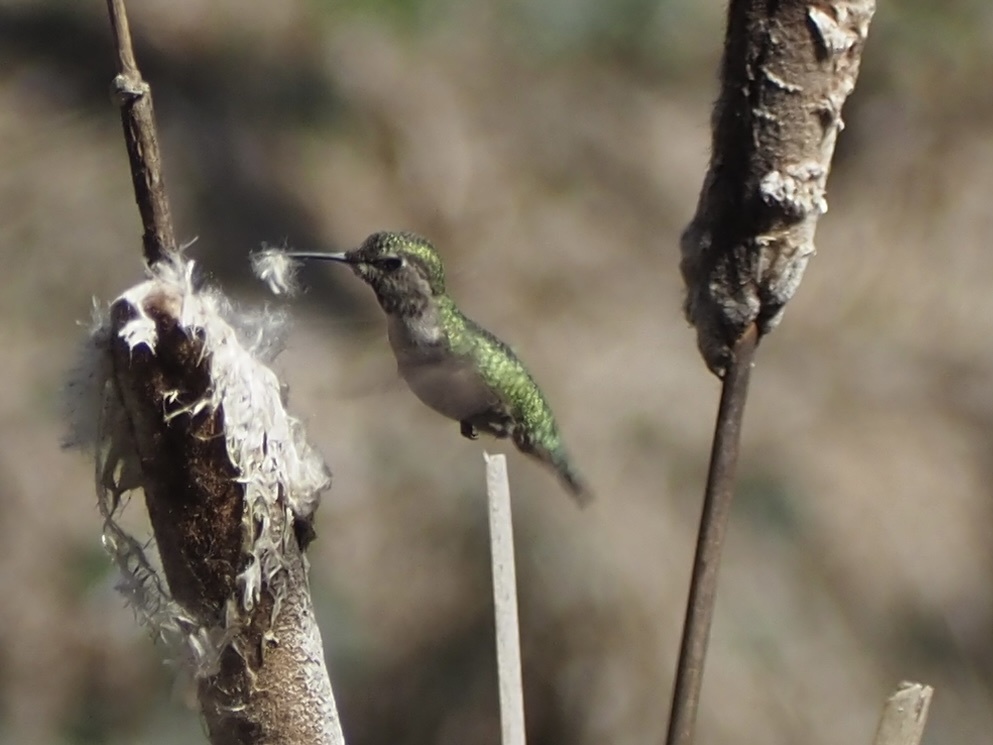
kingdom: Animalia
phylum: Chordata
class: Aves
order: Apodiformes
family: Trochilidae
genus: Calypte
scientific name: Calypte anna
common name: Anna's hummingbird
